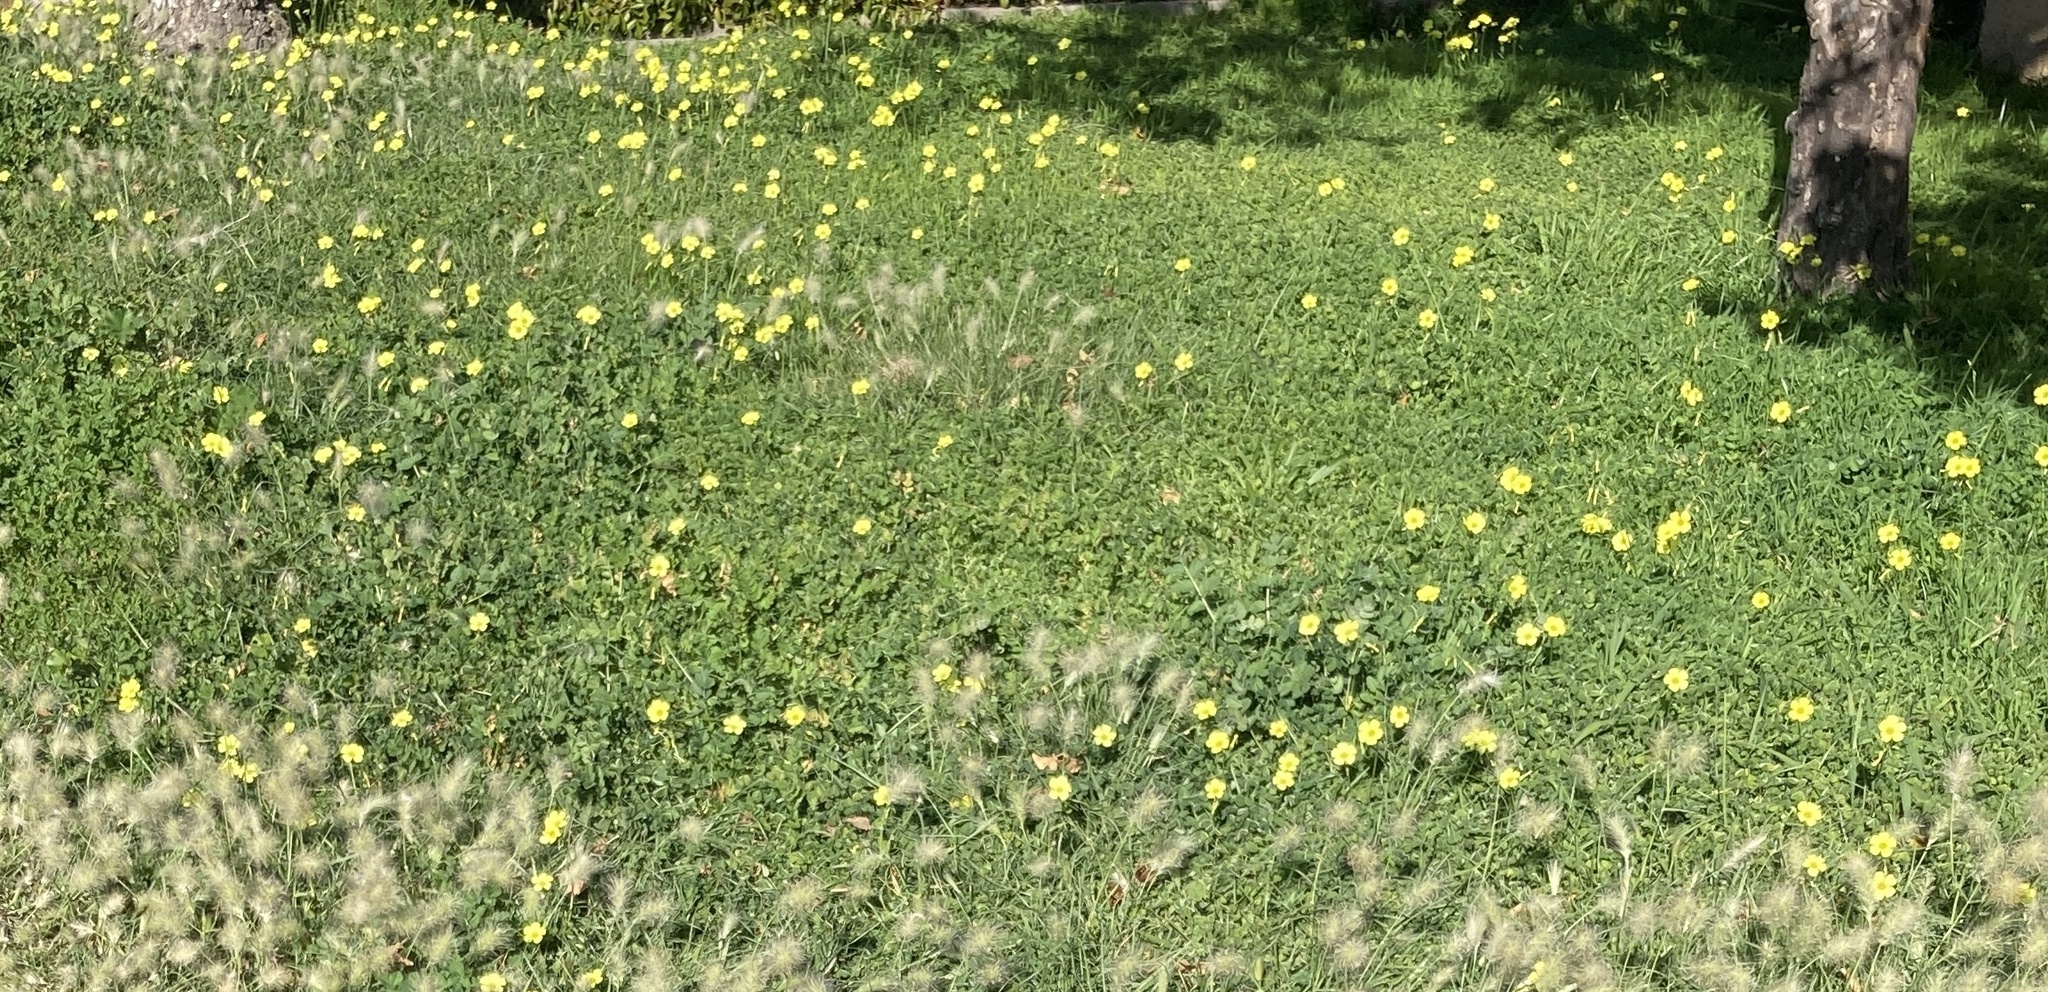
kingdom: Plantae
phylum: Tracheophyta
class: Magnoliopsida
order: Oxalidales
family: Oxalidaceae
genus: Oxalis
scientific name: Oxalis pes-caprae
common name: Bermuda-buttercup
